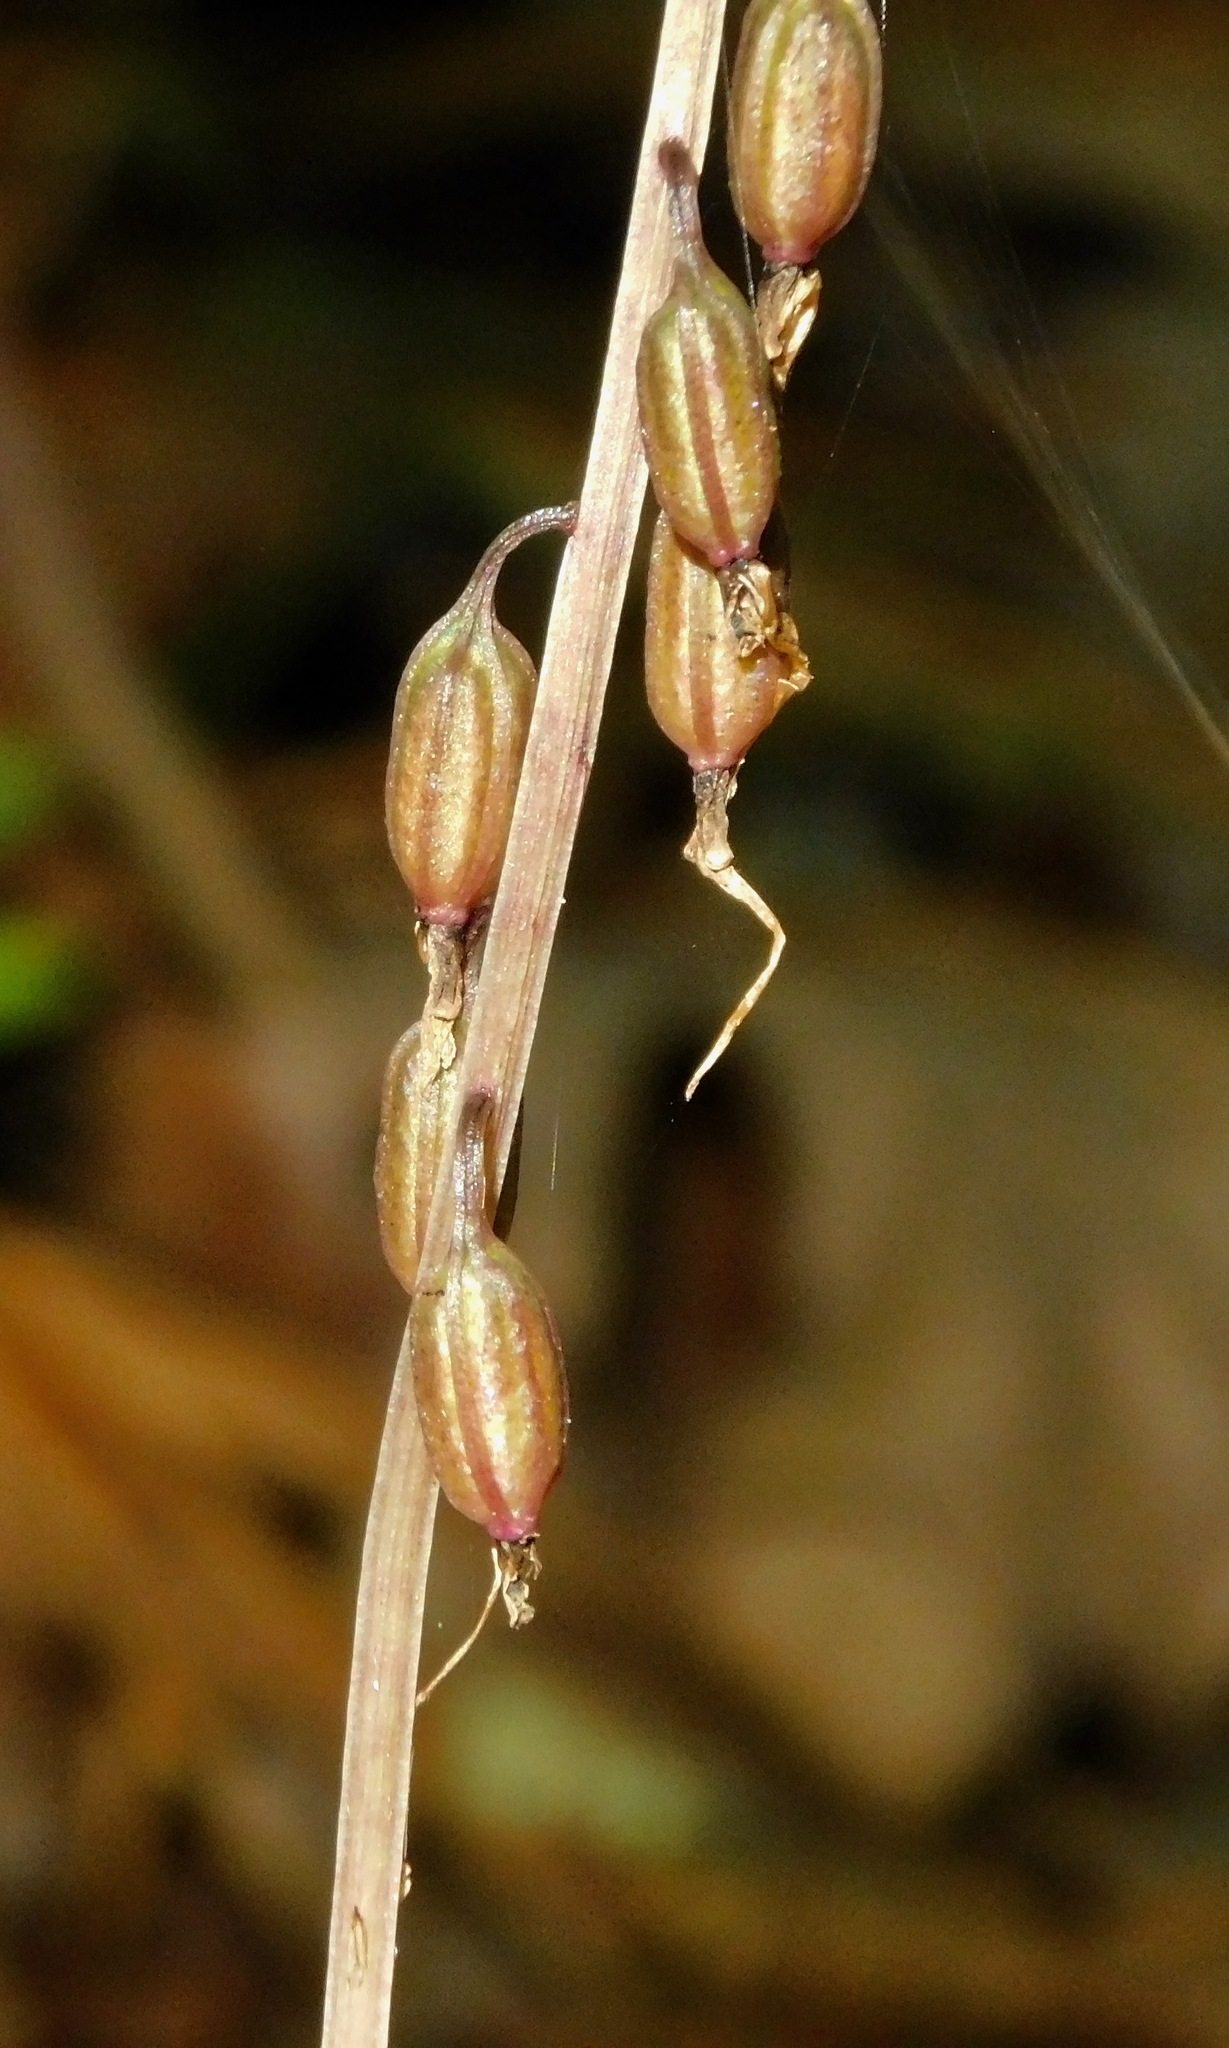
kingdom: Plantae
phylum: Tracheophyta
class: Liliopsida
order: Asparagales
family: Orchidaceae
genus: Tipularia
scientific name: Tipularia discolor
